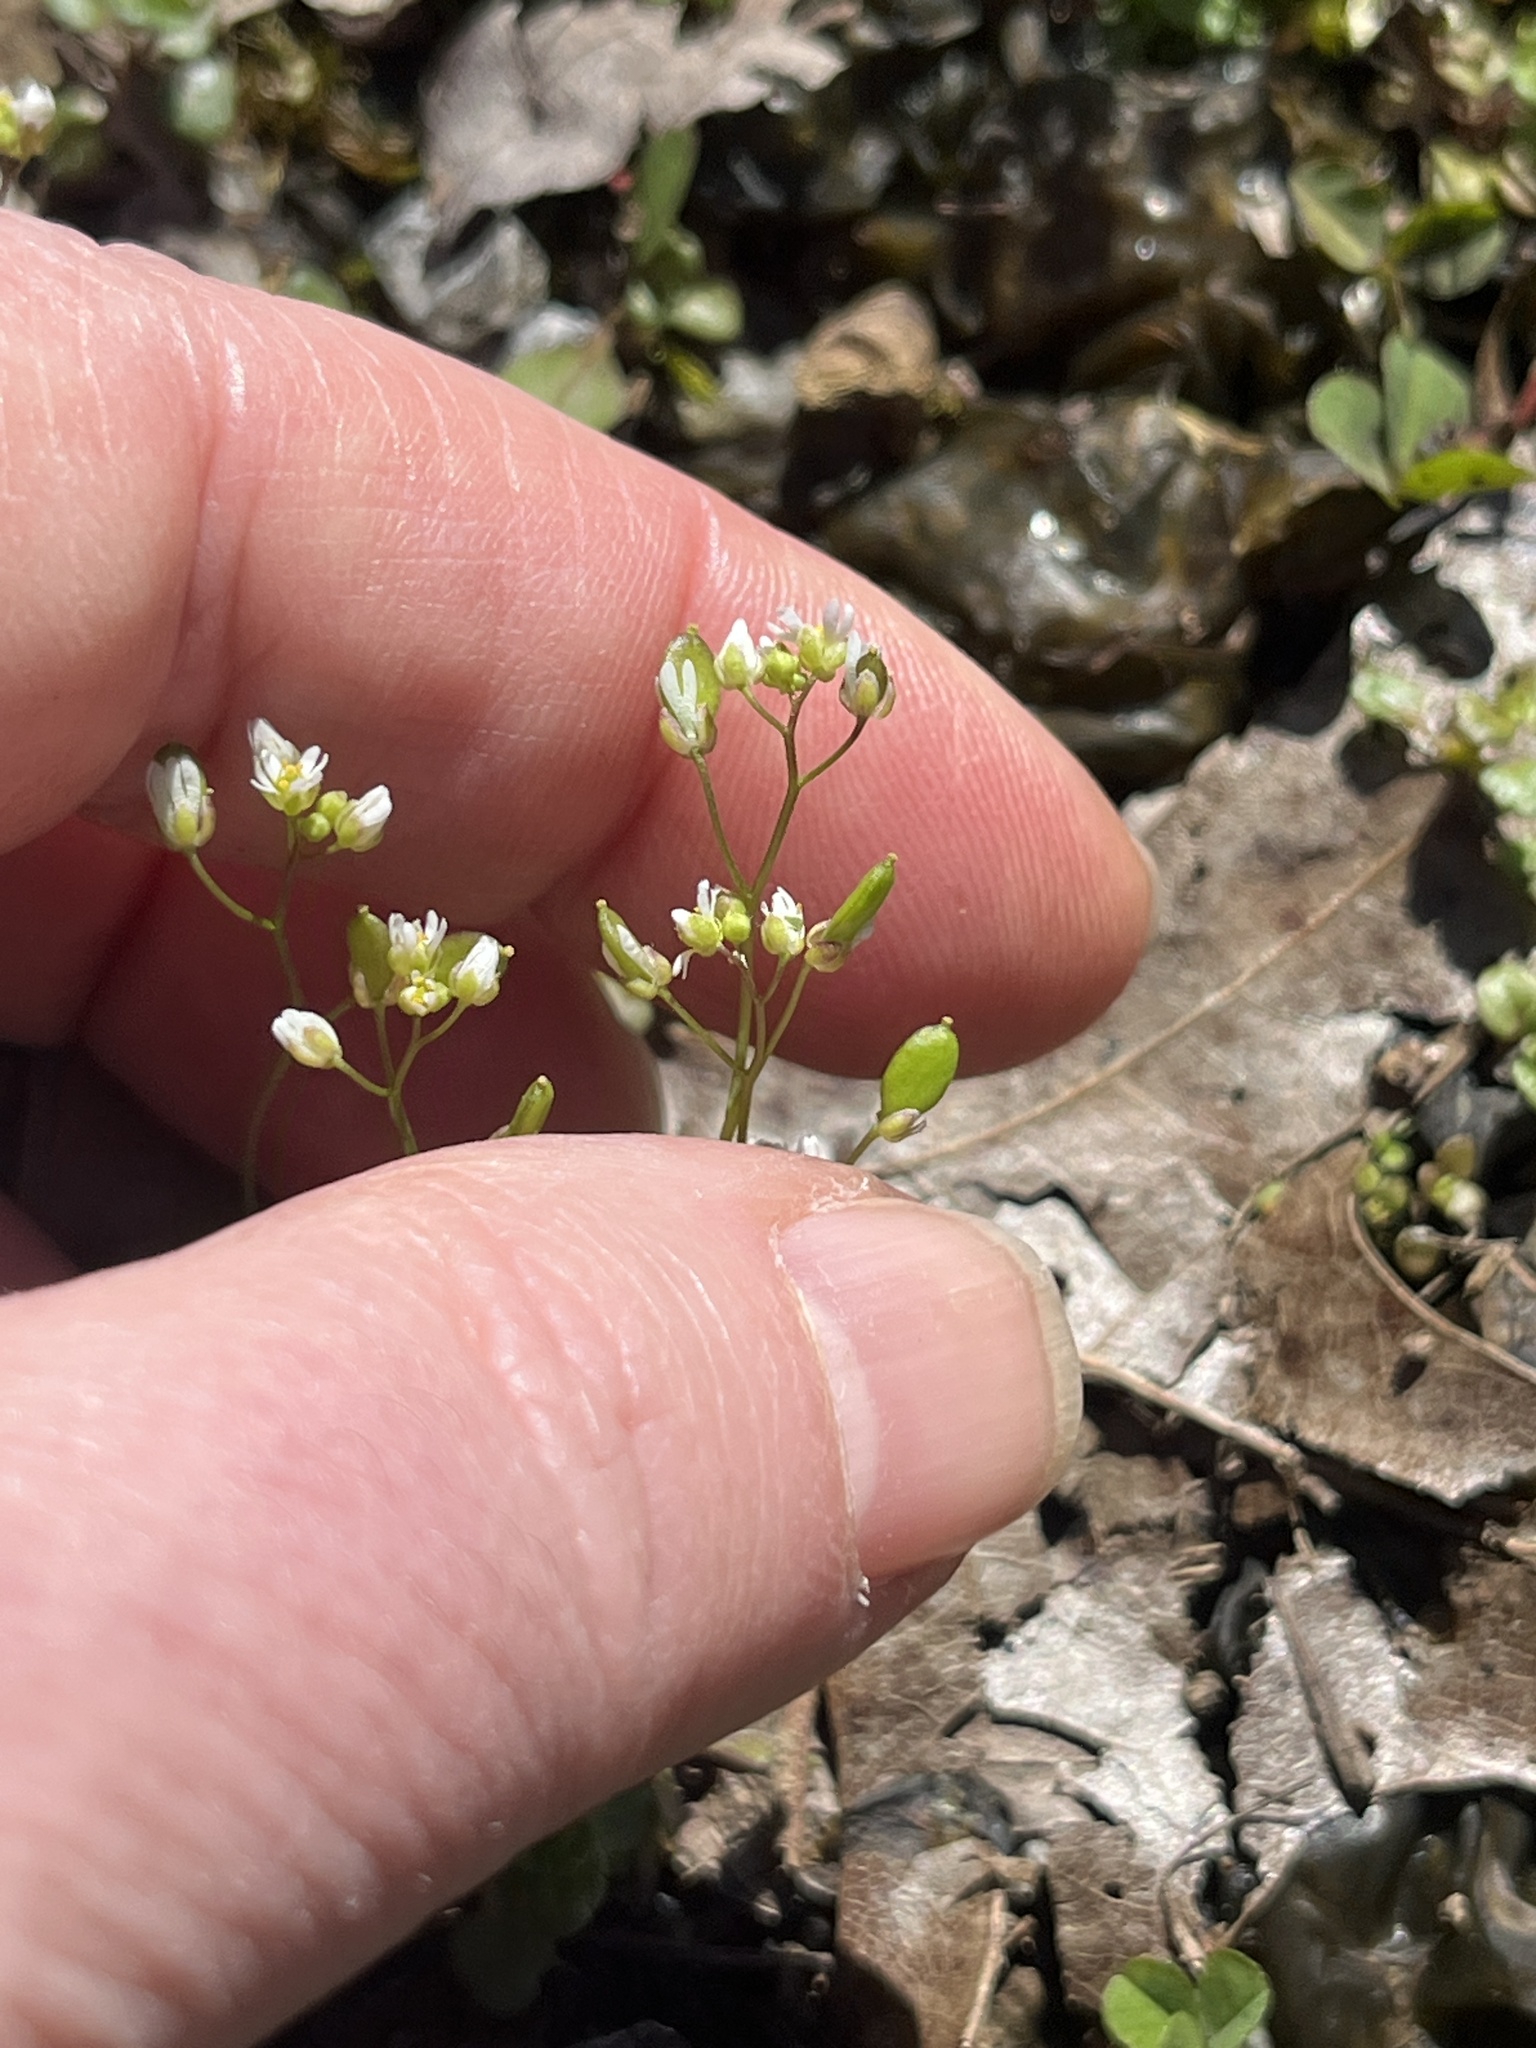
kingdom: Plantae
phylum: Tracheophyta
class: Magnoliopsida
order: Brassicales
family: Brassicaceae
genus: Draba
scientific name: Draba verna
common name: Spring draba
